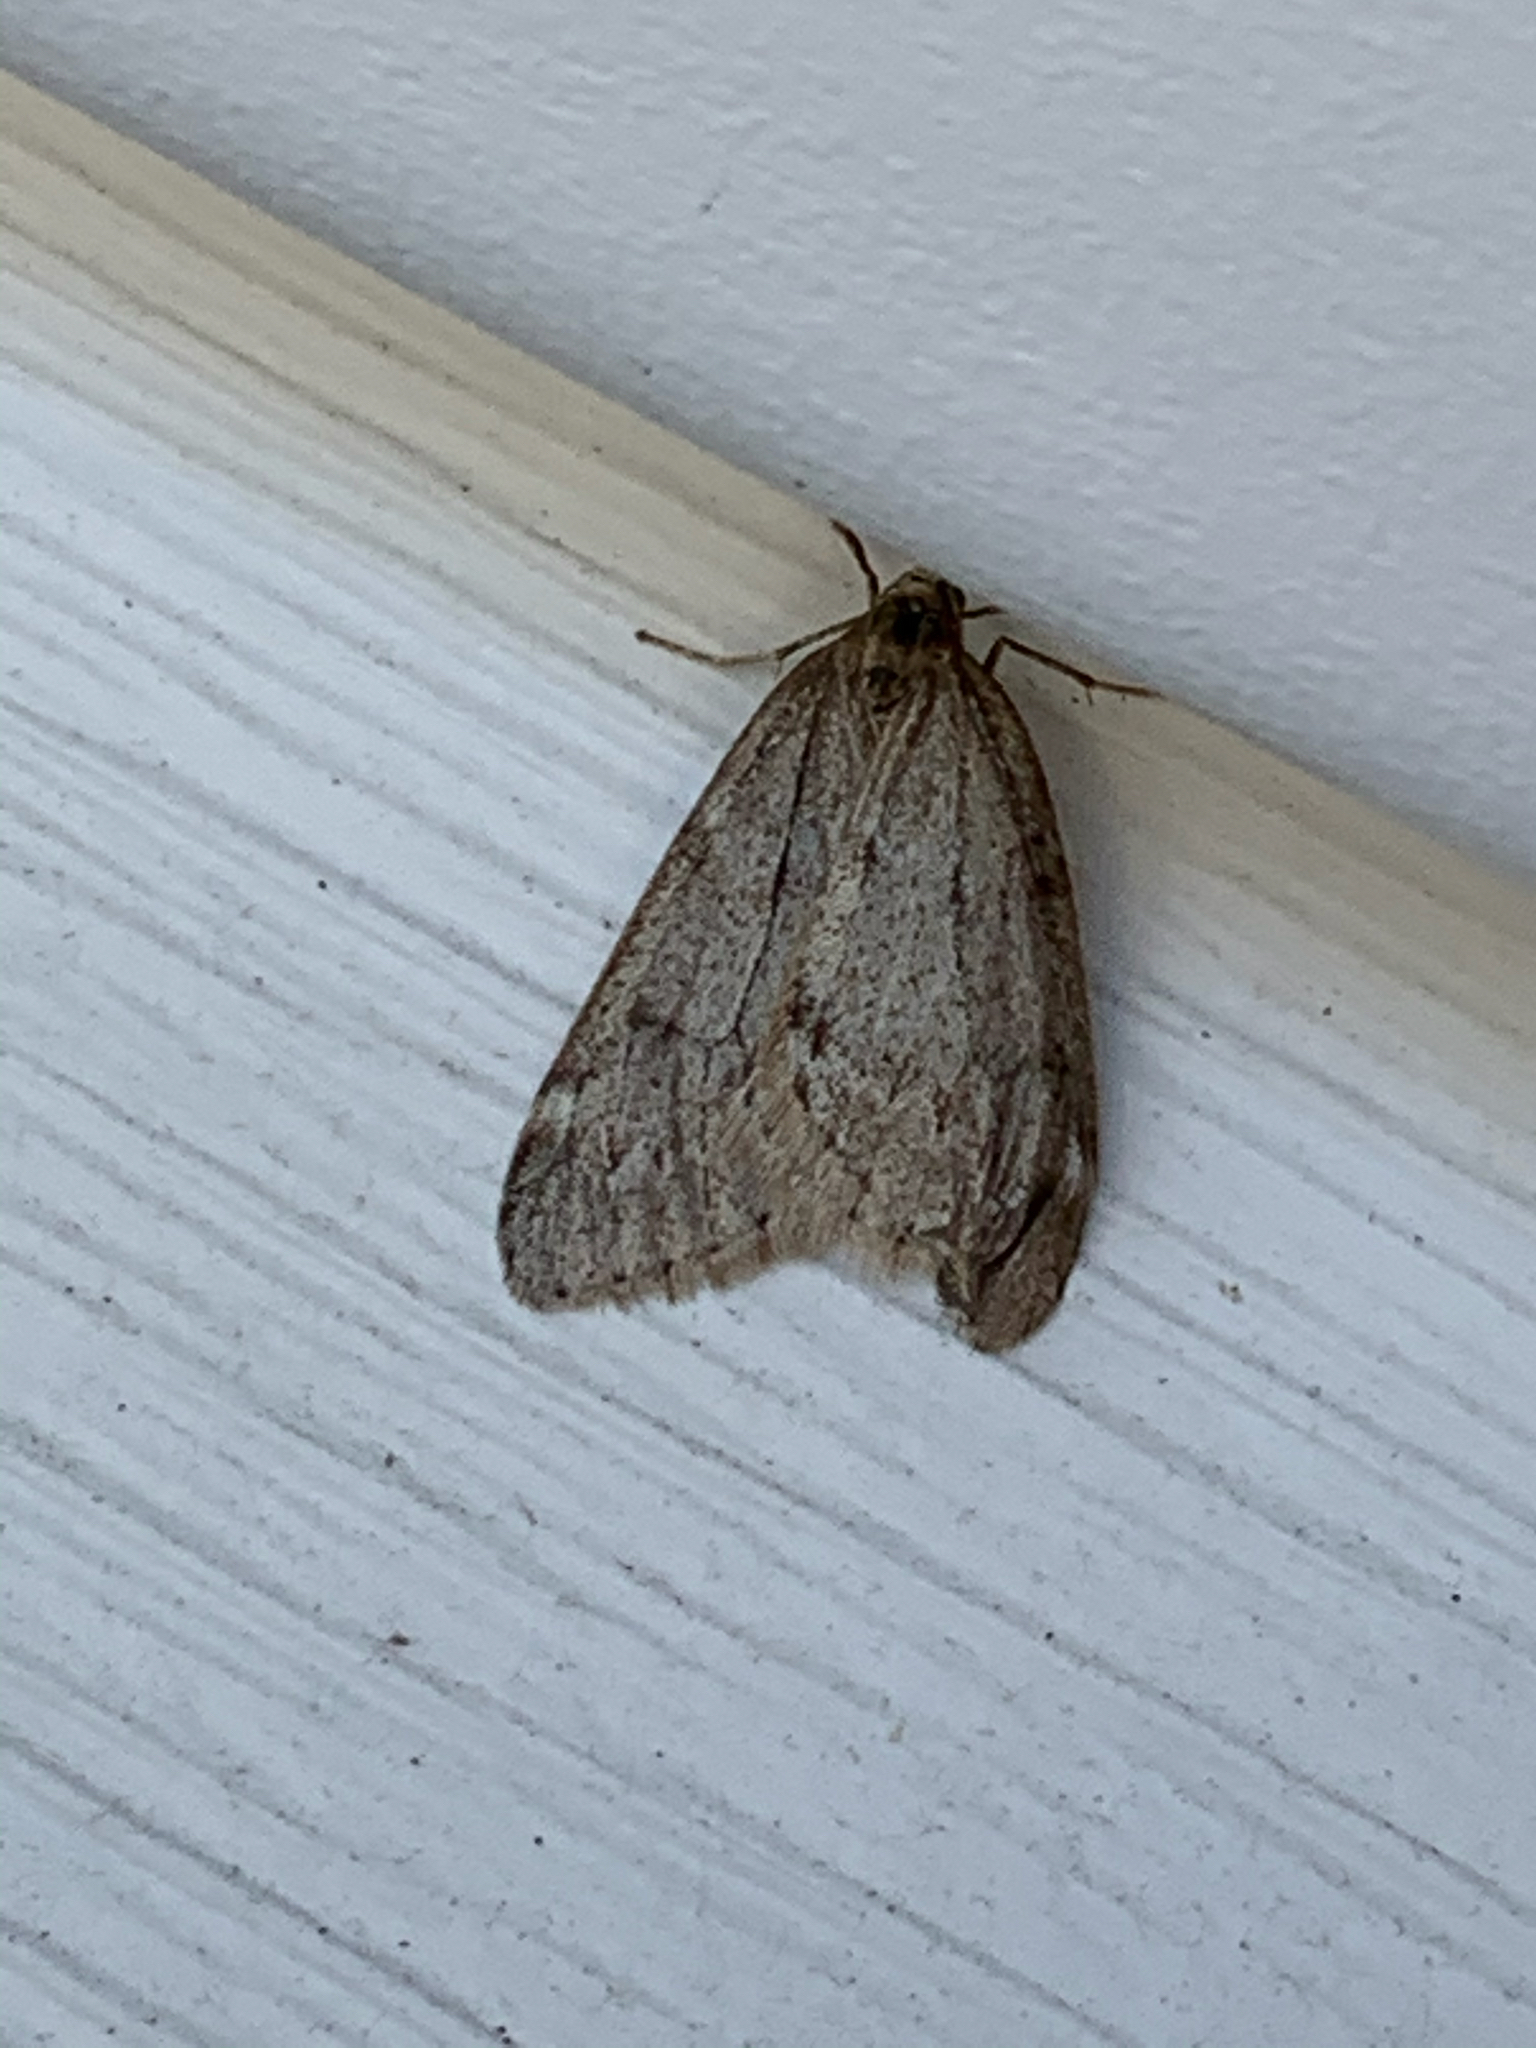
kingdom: Animalia
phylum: Arthropoda
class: Insecta
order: Lepidoptera
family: Geometridae
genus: Alsophila
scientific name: Alsophila pometaria
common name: Fall cankerworm
